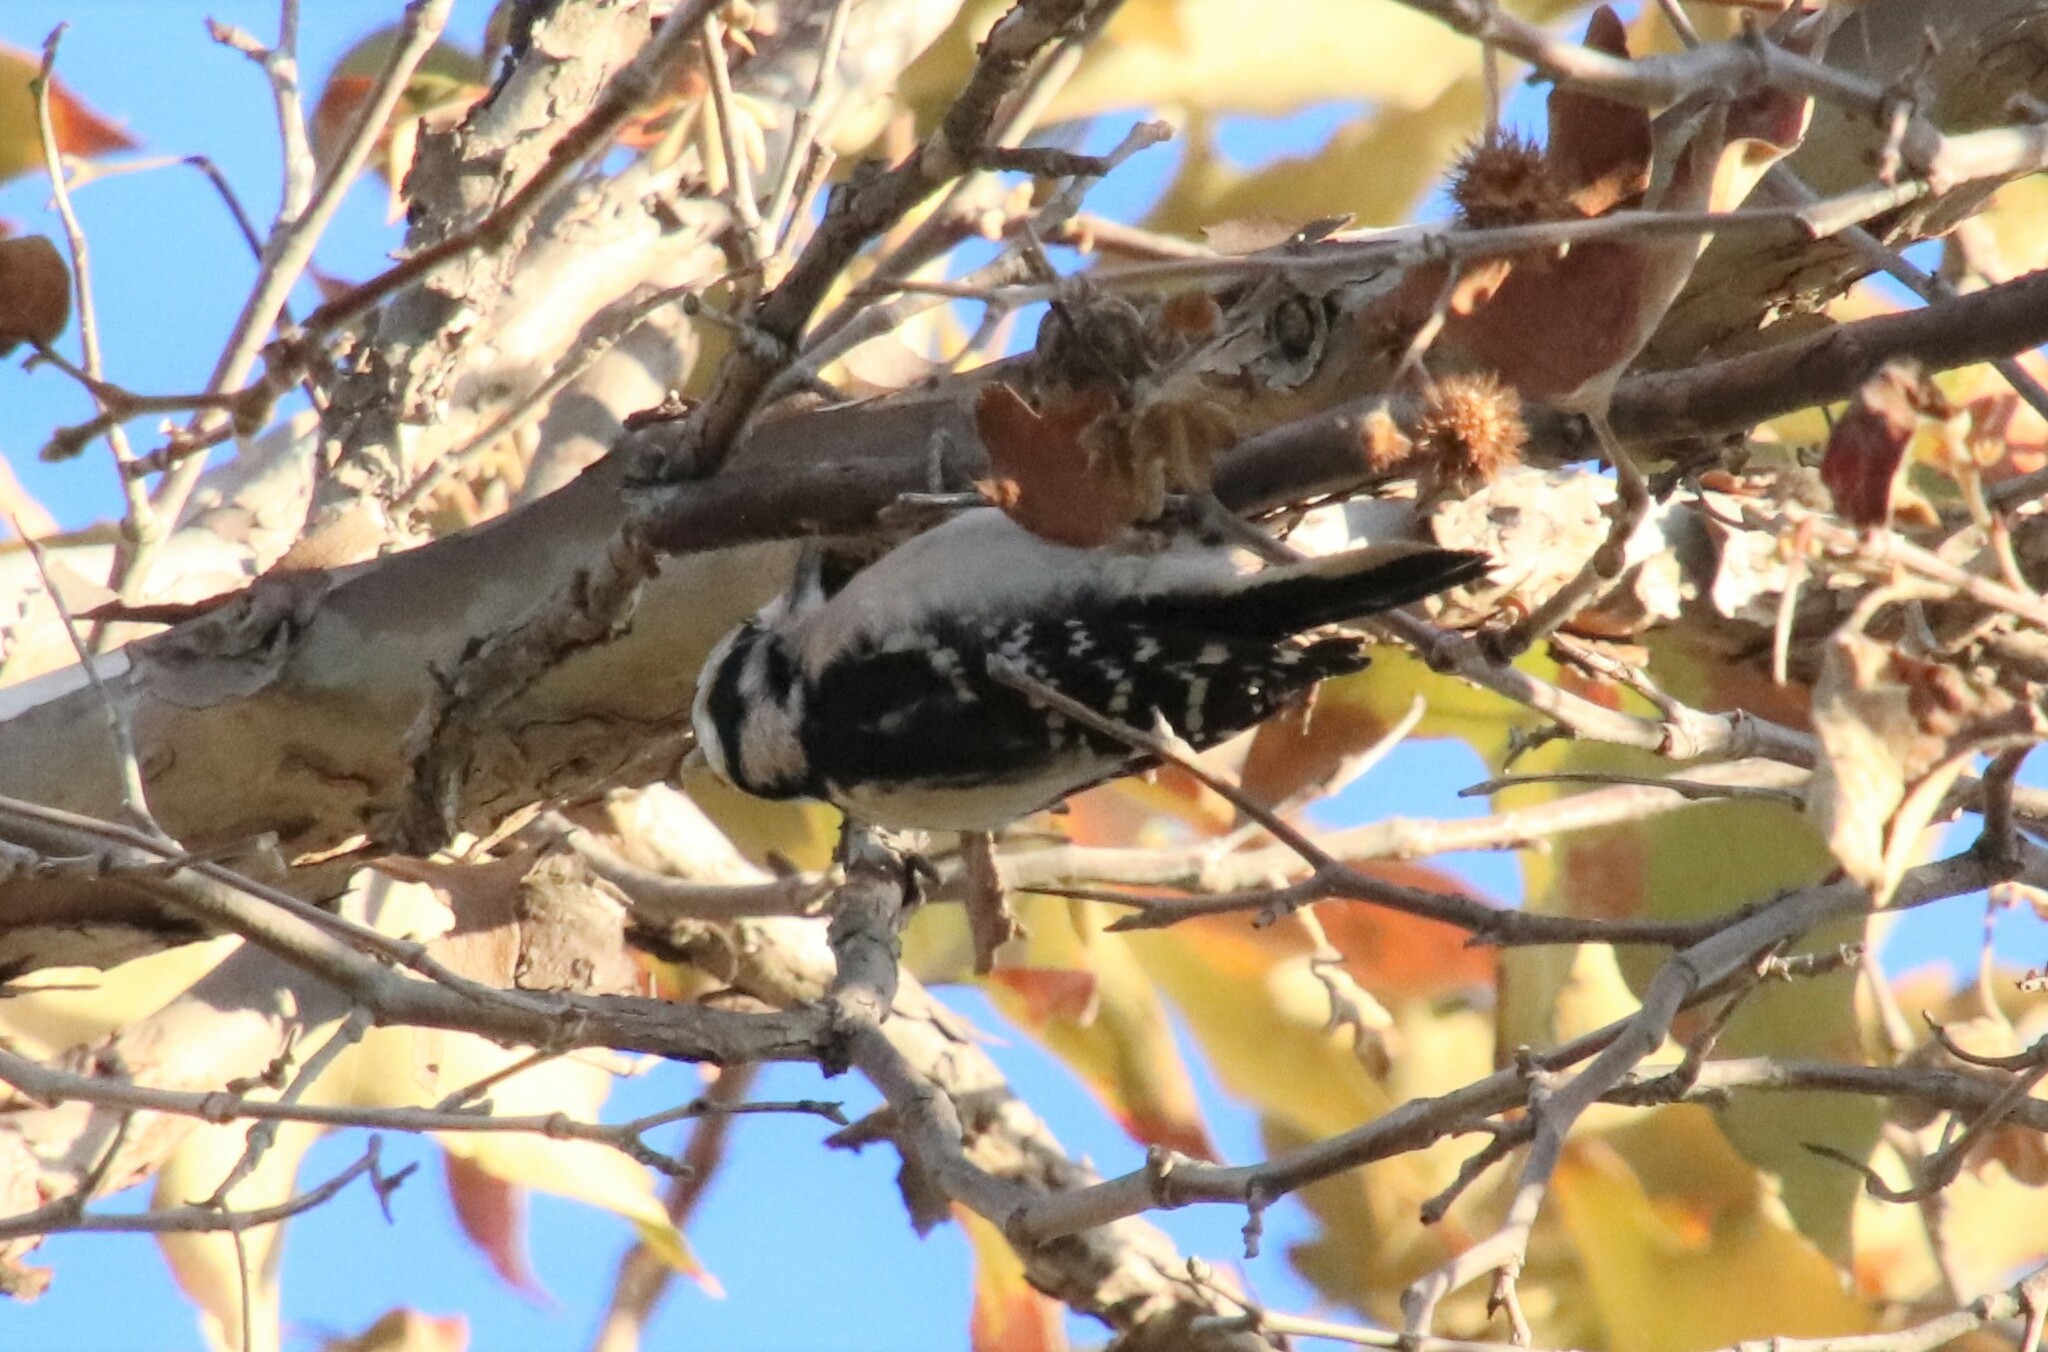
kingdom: Animalia
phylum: Chordata
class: Aves
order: Piciformes
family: Picidae
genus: Dryobates
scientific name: Dryobates pubescens
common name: Downy woodpecker
